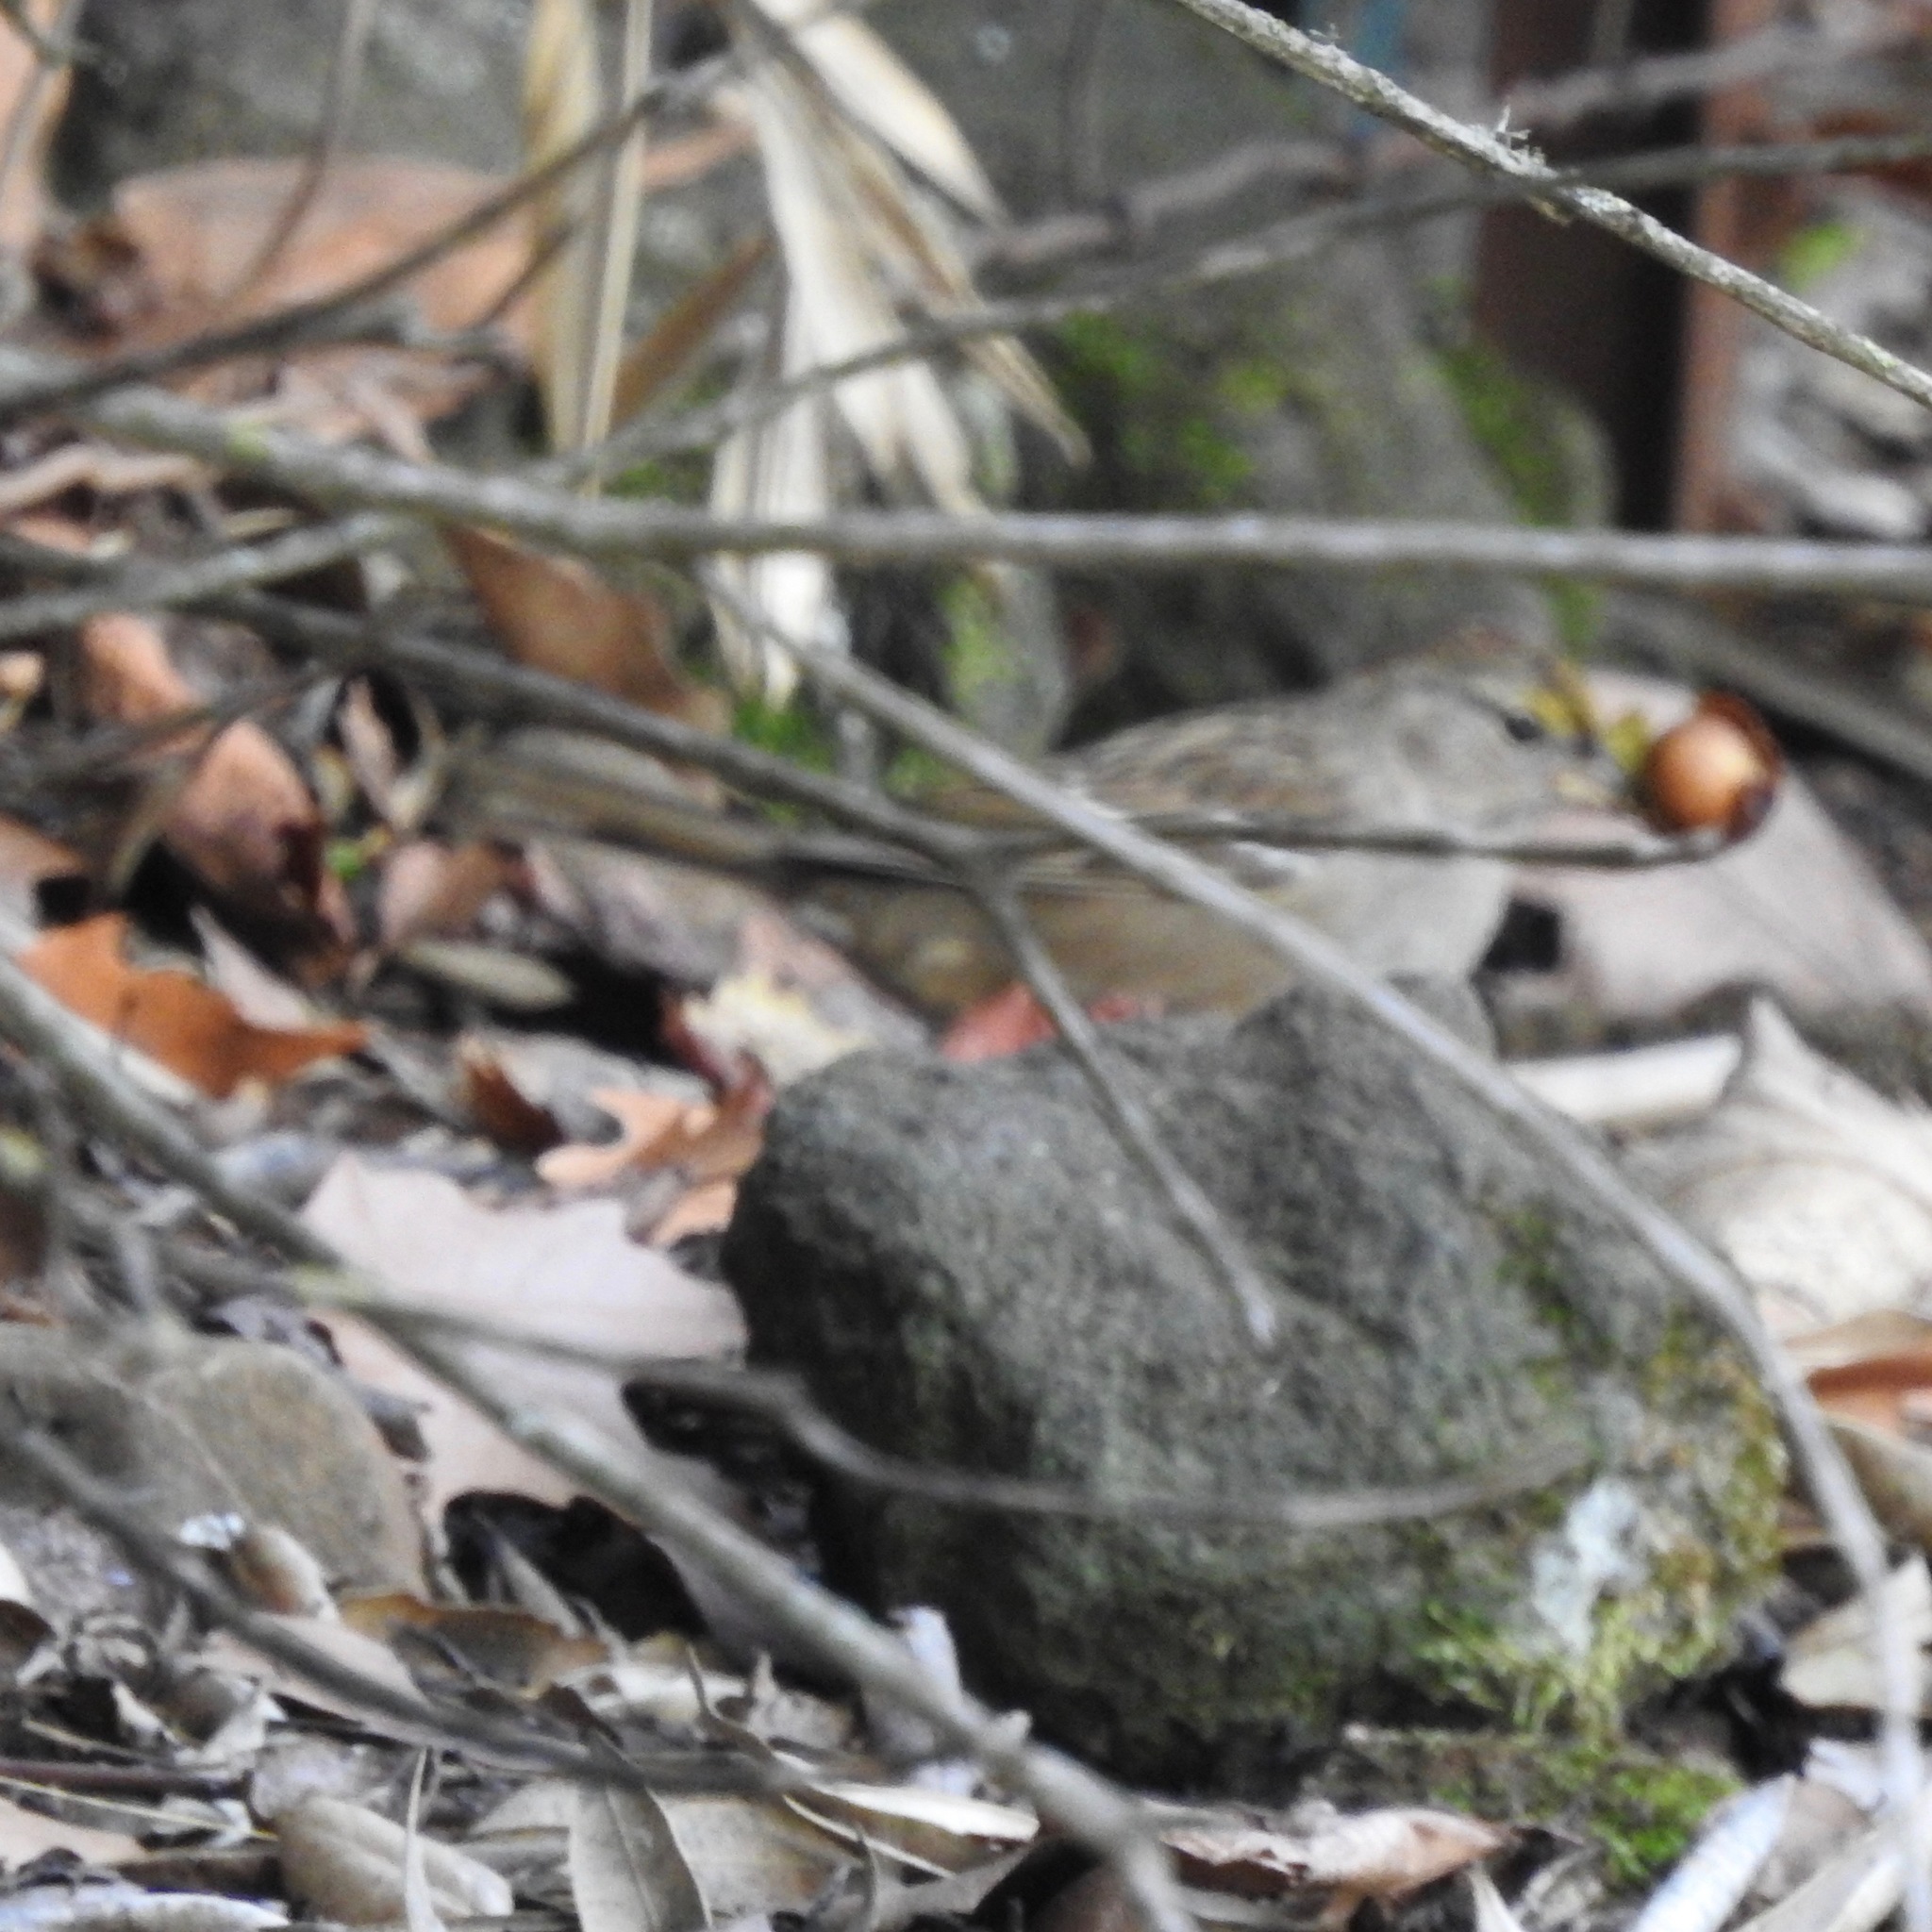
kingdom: Animalia
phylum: Chordata
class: Aves
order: Passeriformes
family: Passerellidae
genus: Zonotrichia
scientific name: Zonotrichia atricapilla
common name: Golden-crowned sparrow
